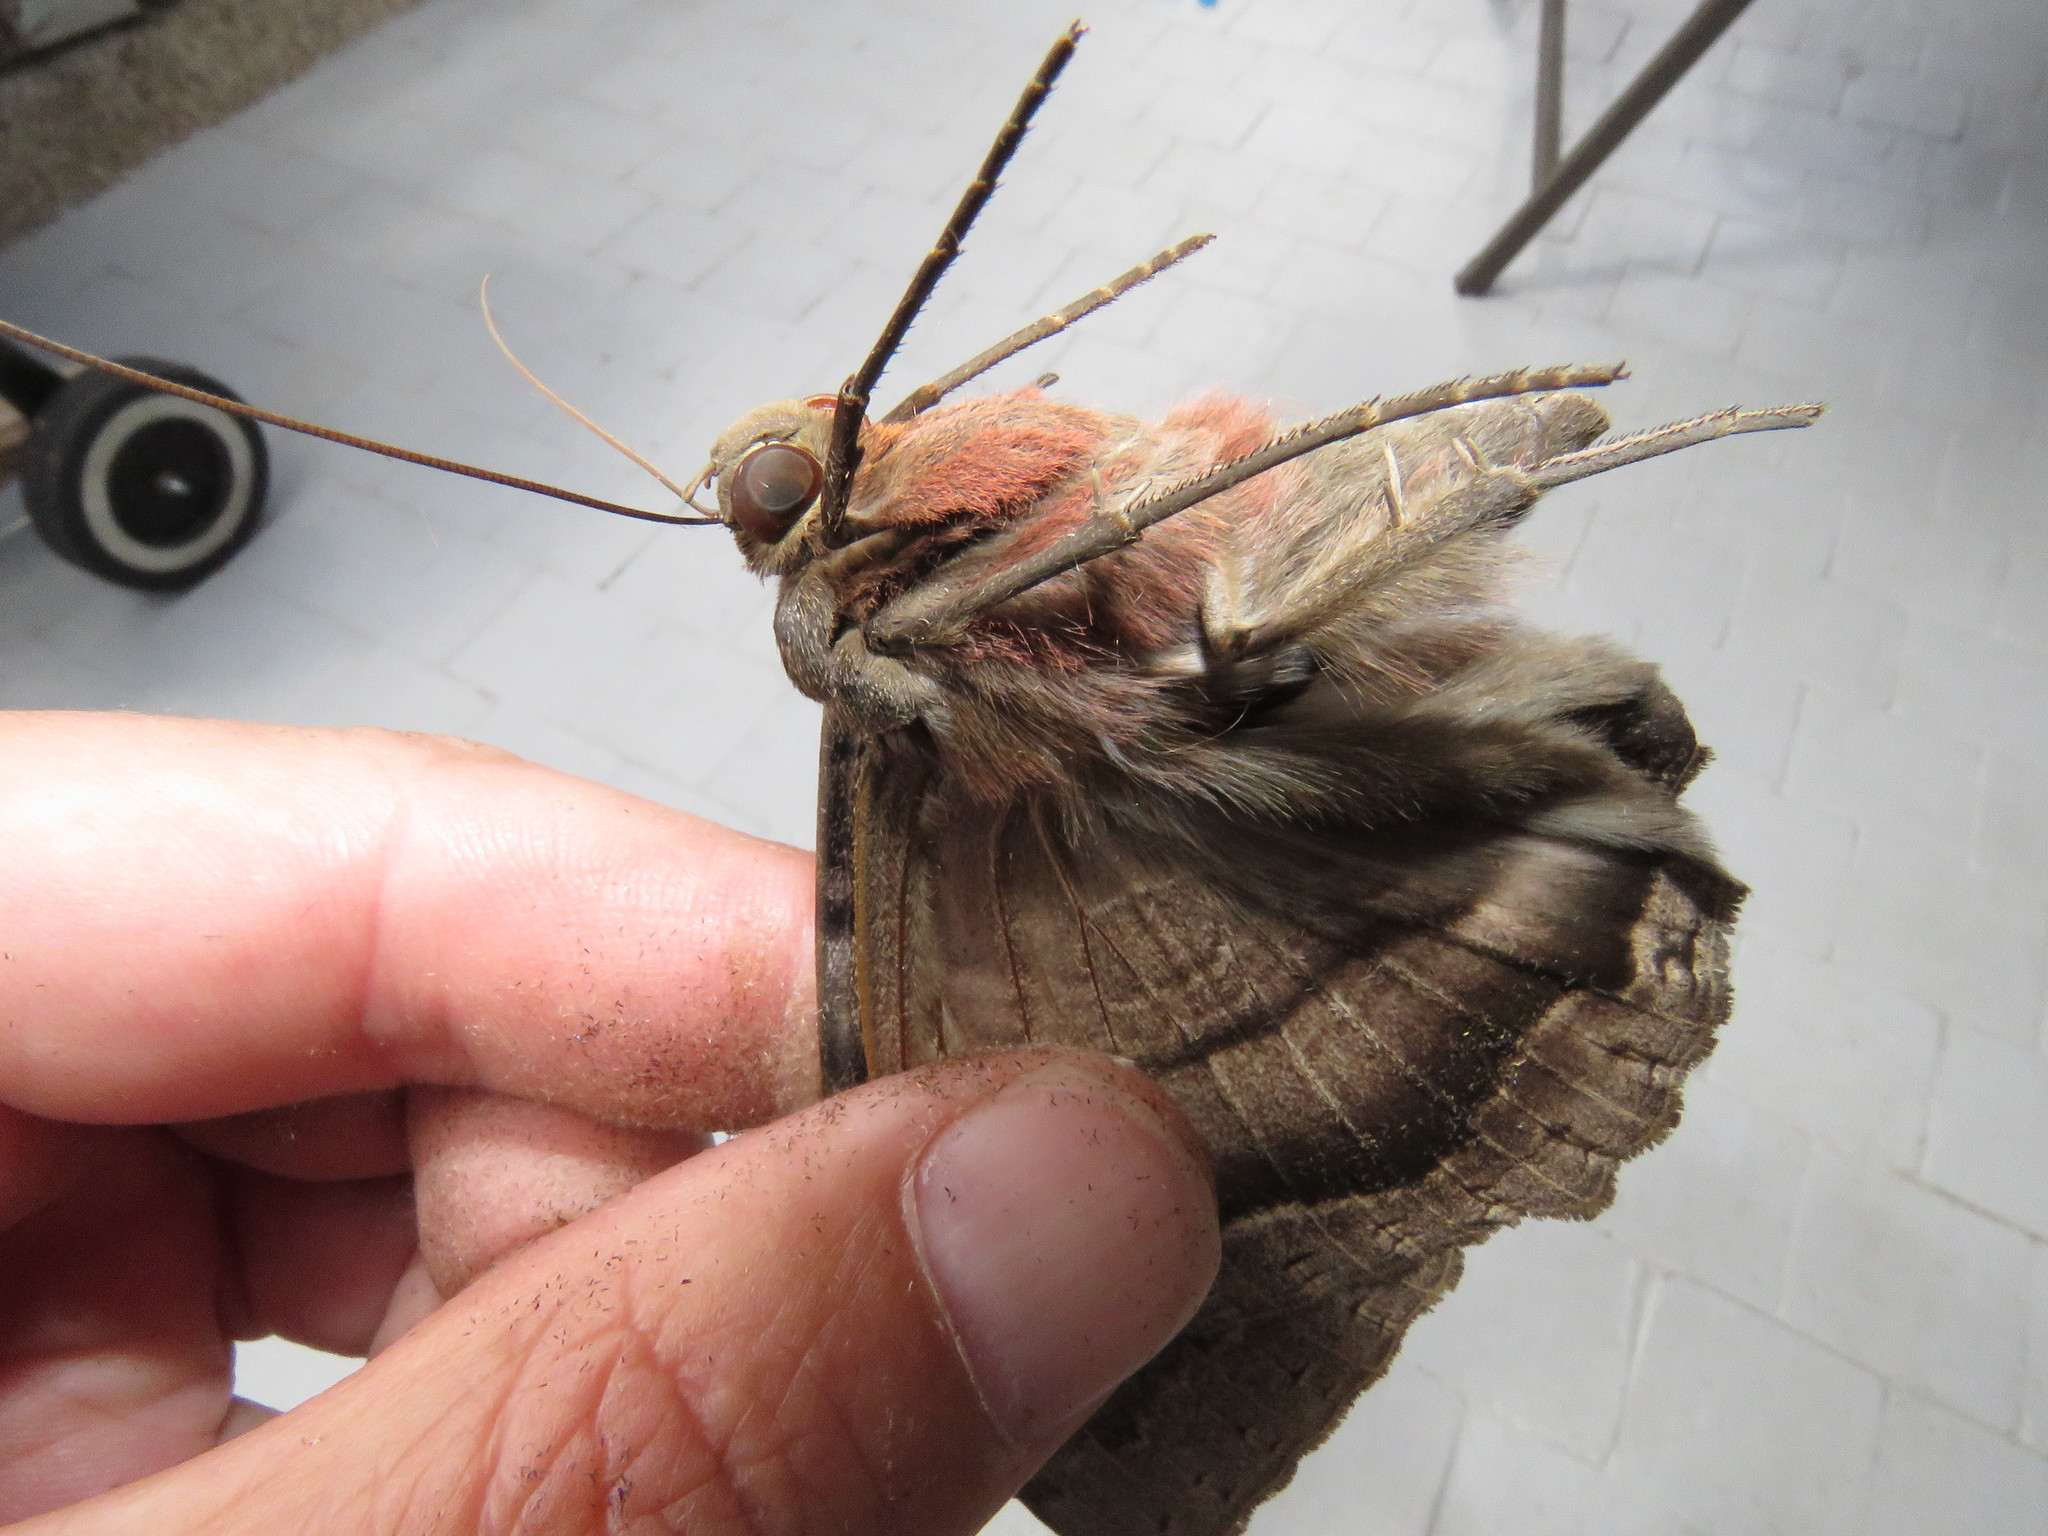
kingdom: Animalia
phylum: Arthropoda
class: Insecta
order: Lepidoptera
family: Erebidae
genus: Ascalapha
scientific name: Ascalapha odorata
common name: Black witch
